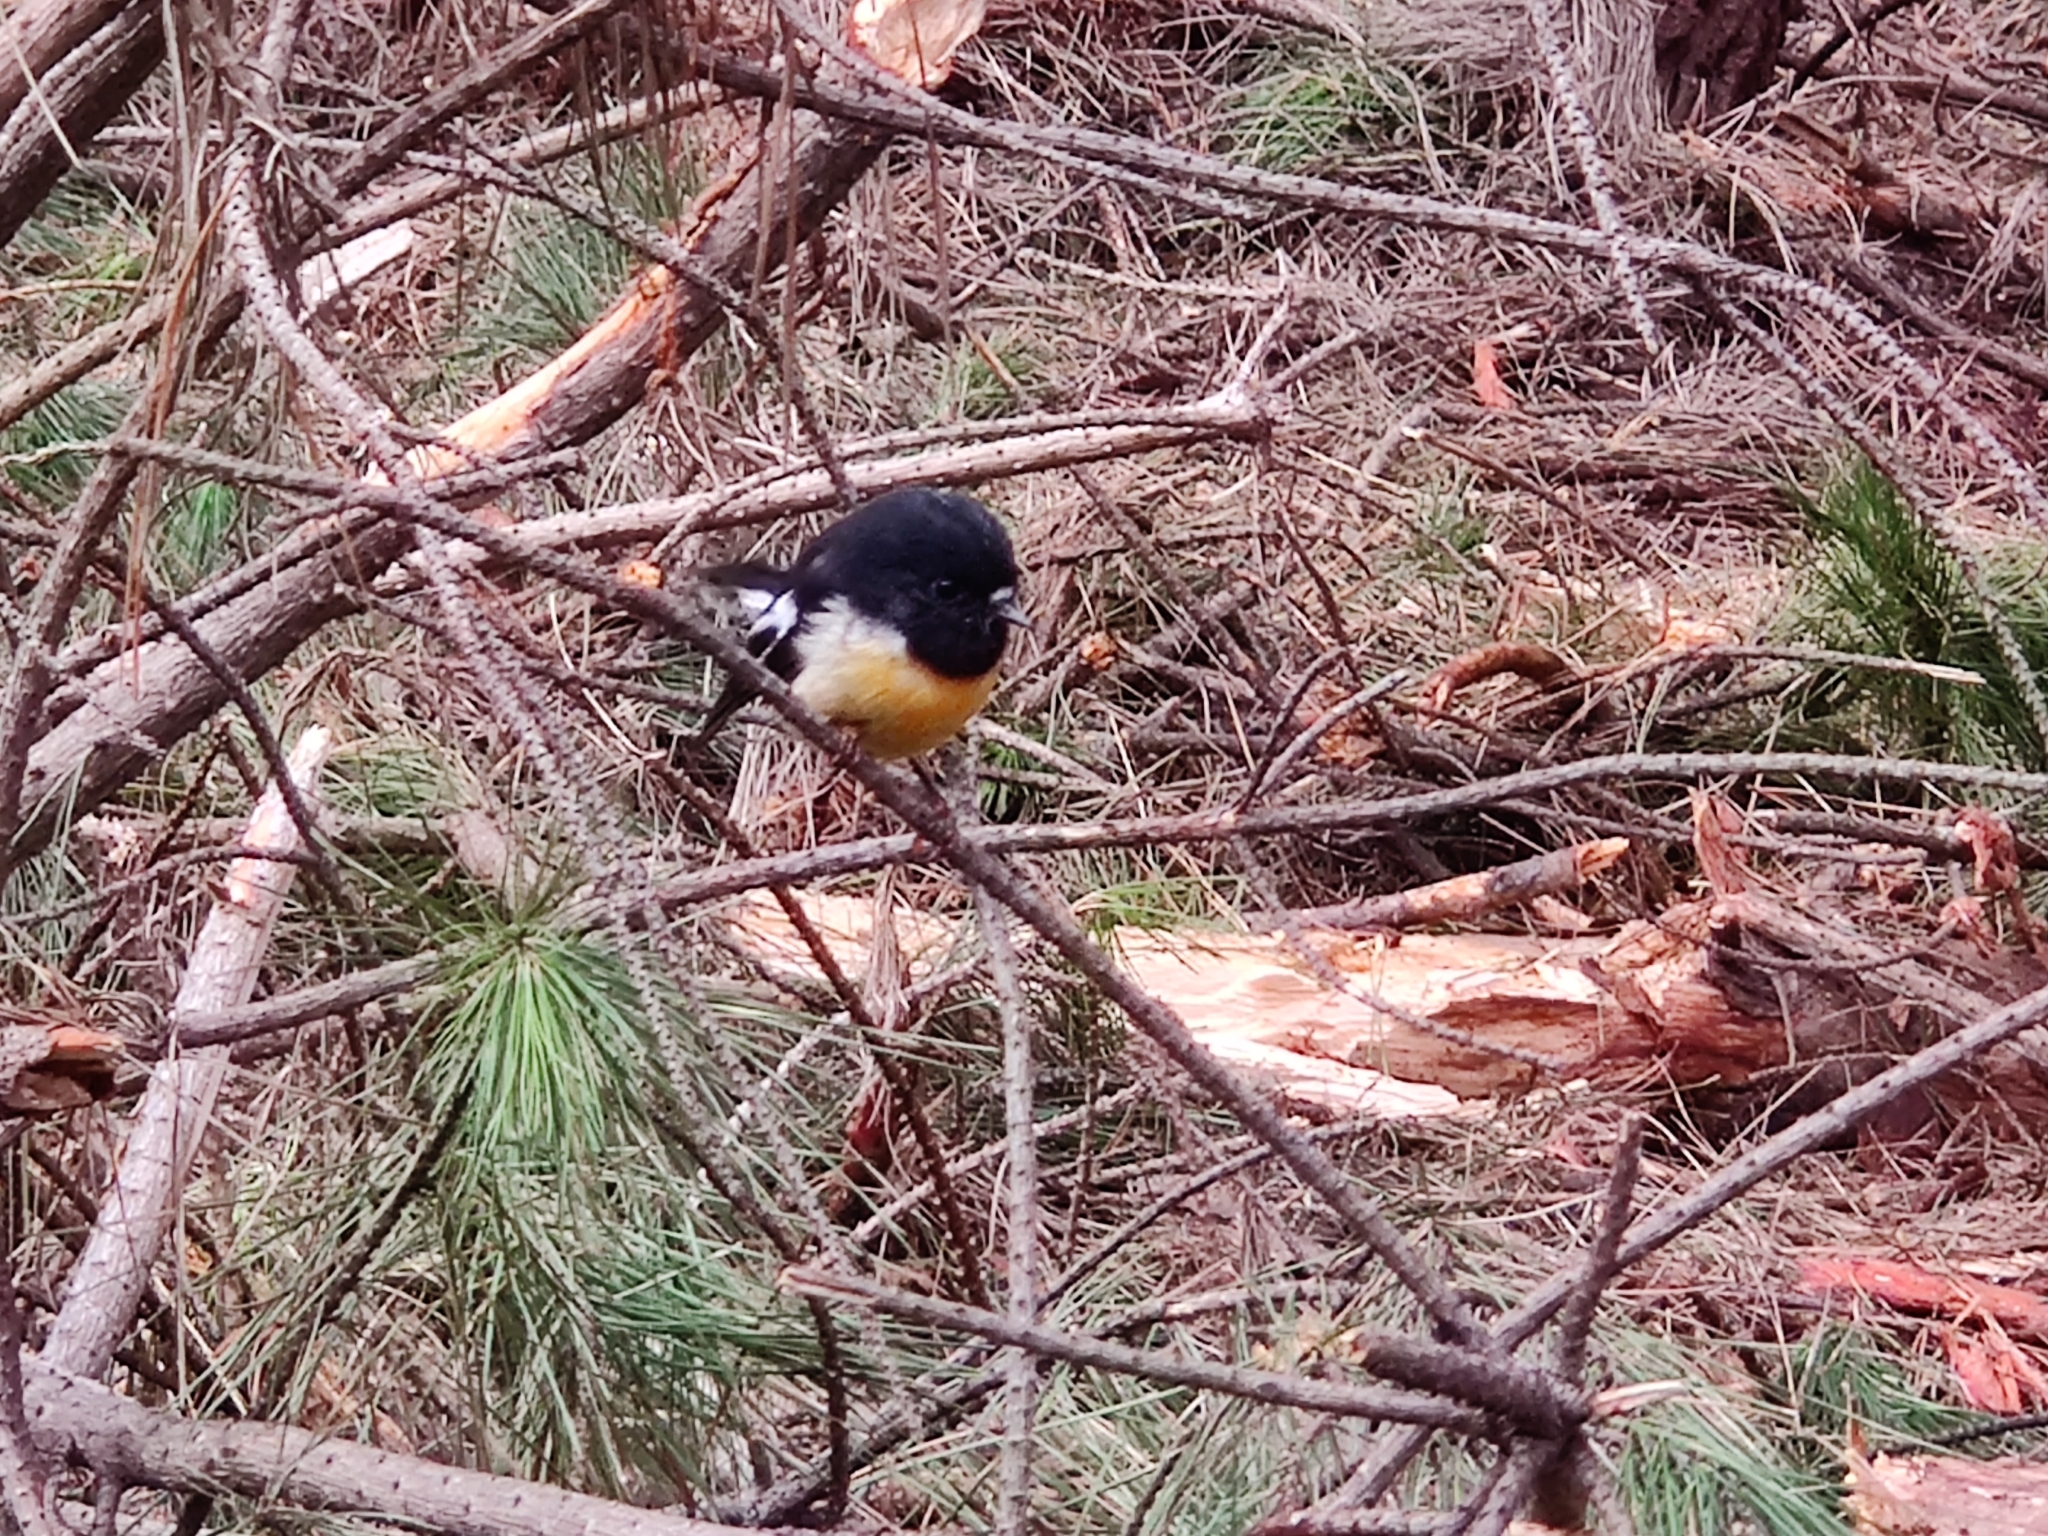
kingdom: Animalia
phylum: Chordata
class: Aves
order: Passeriformes
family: Petroicidae
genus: Petroica
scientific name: Petroica macrocephala
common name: Tomtit
